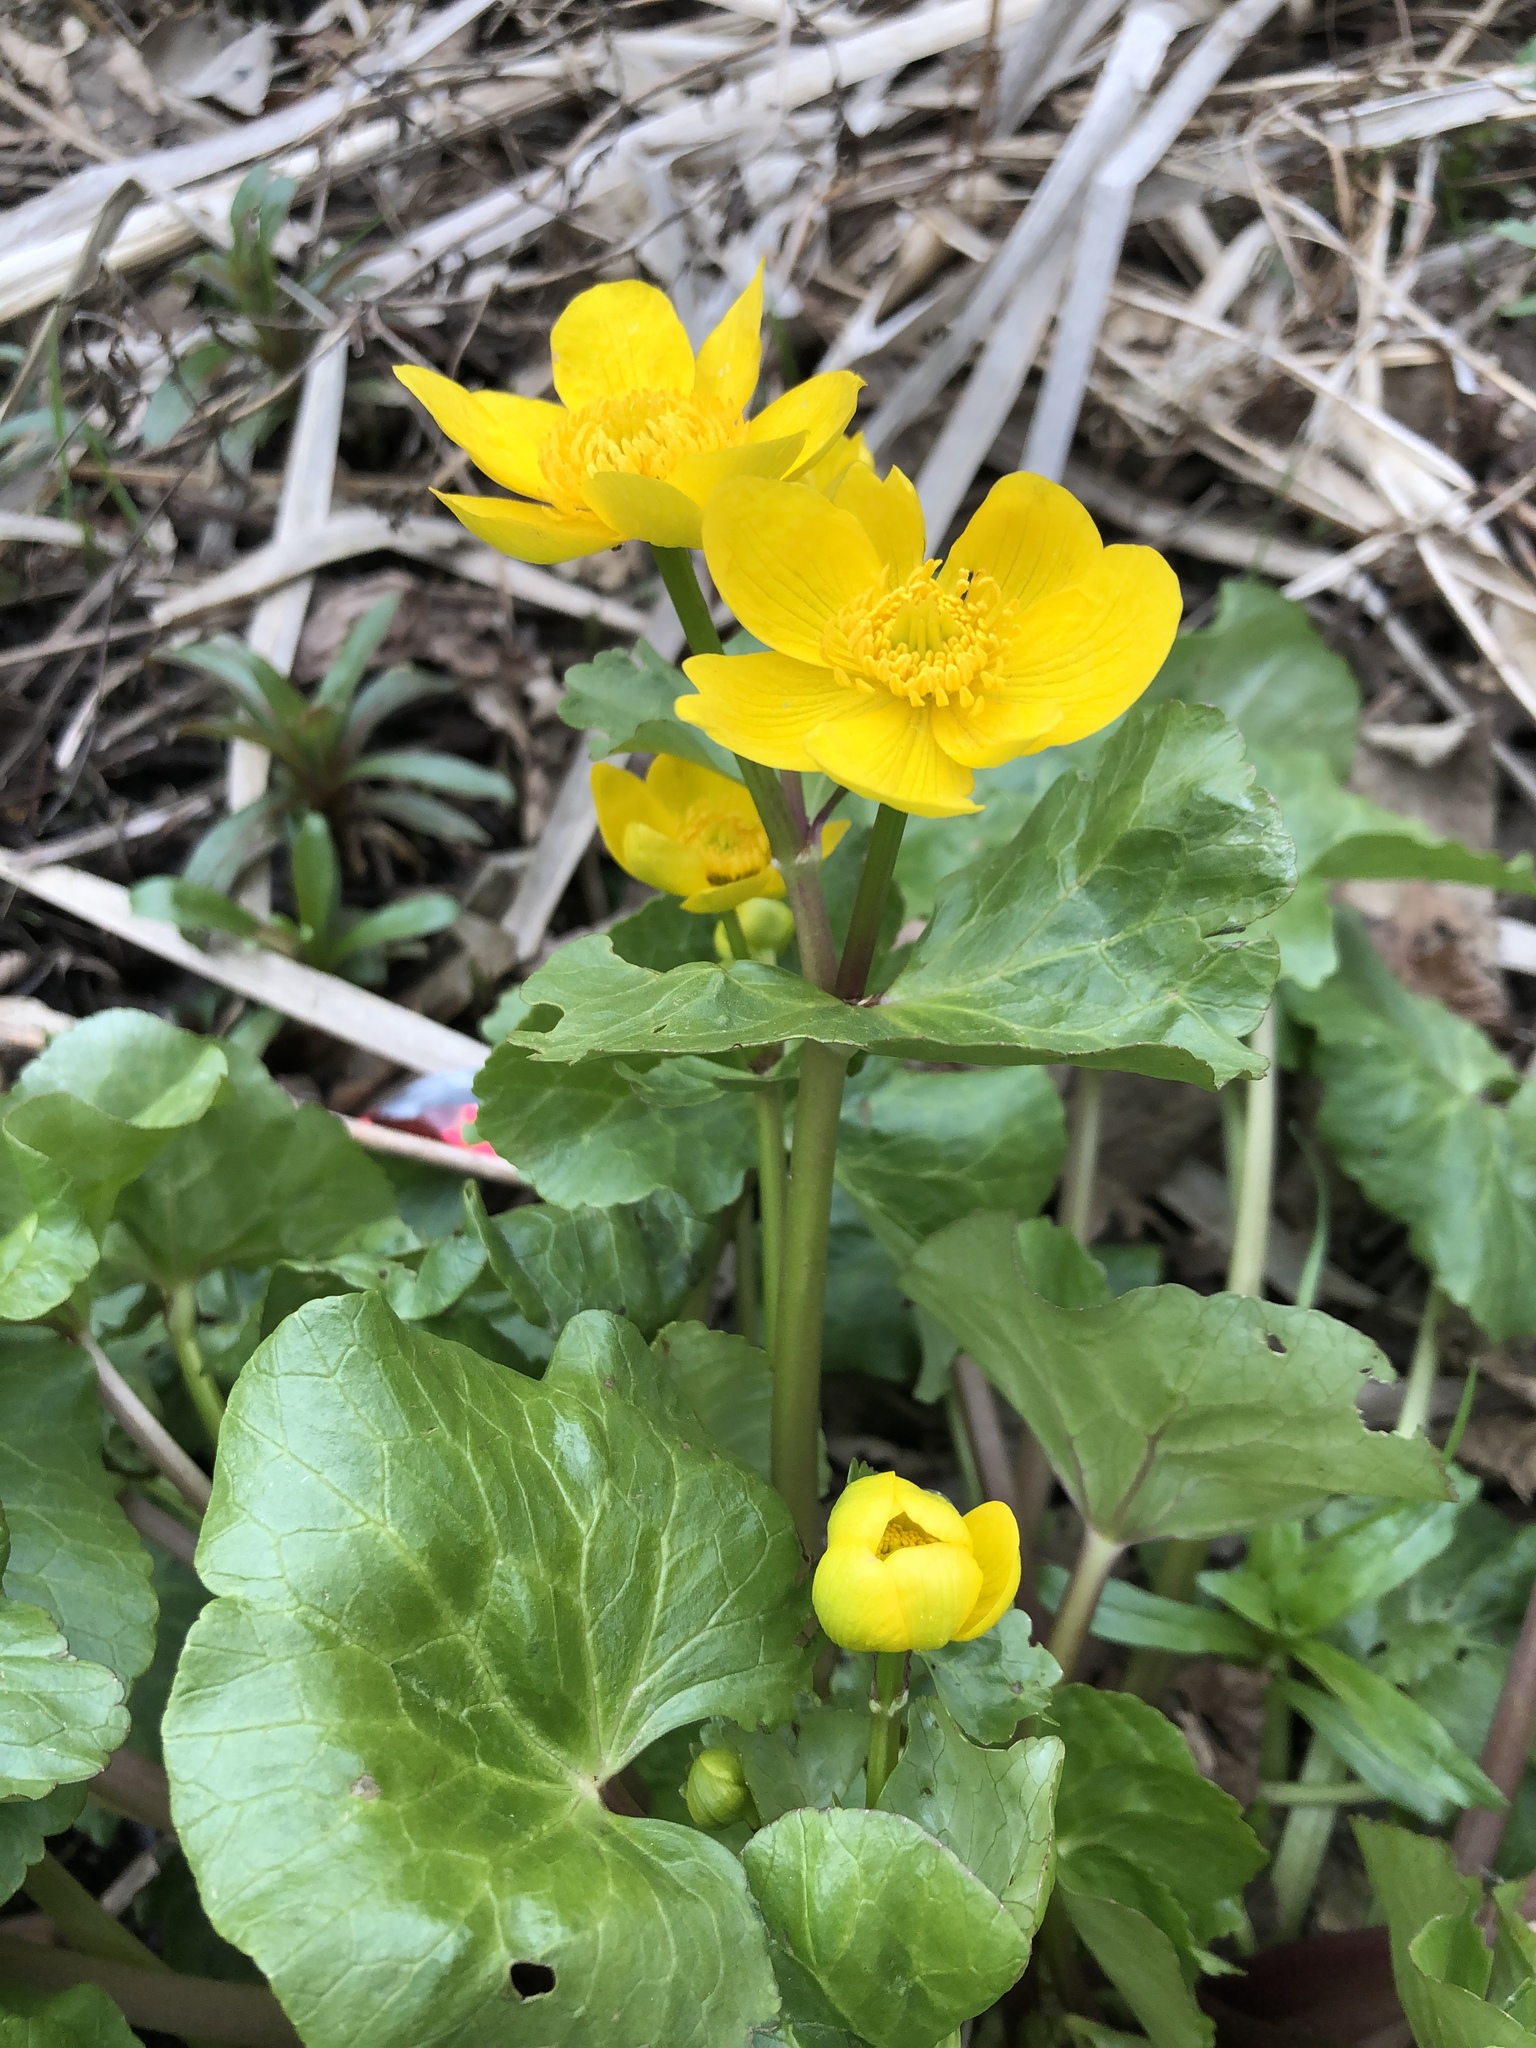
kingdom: Plantae
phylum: Tracheophyta
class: Magnoliopsida
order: Ranunculales
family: Ranunculaceae
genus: Caltha
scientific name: Caltha palustris
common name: Marsh marigold
